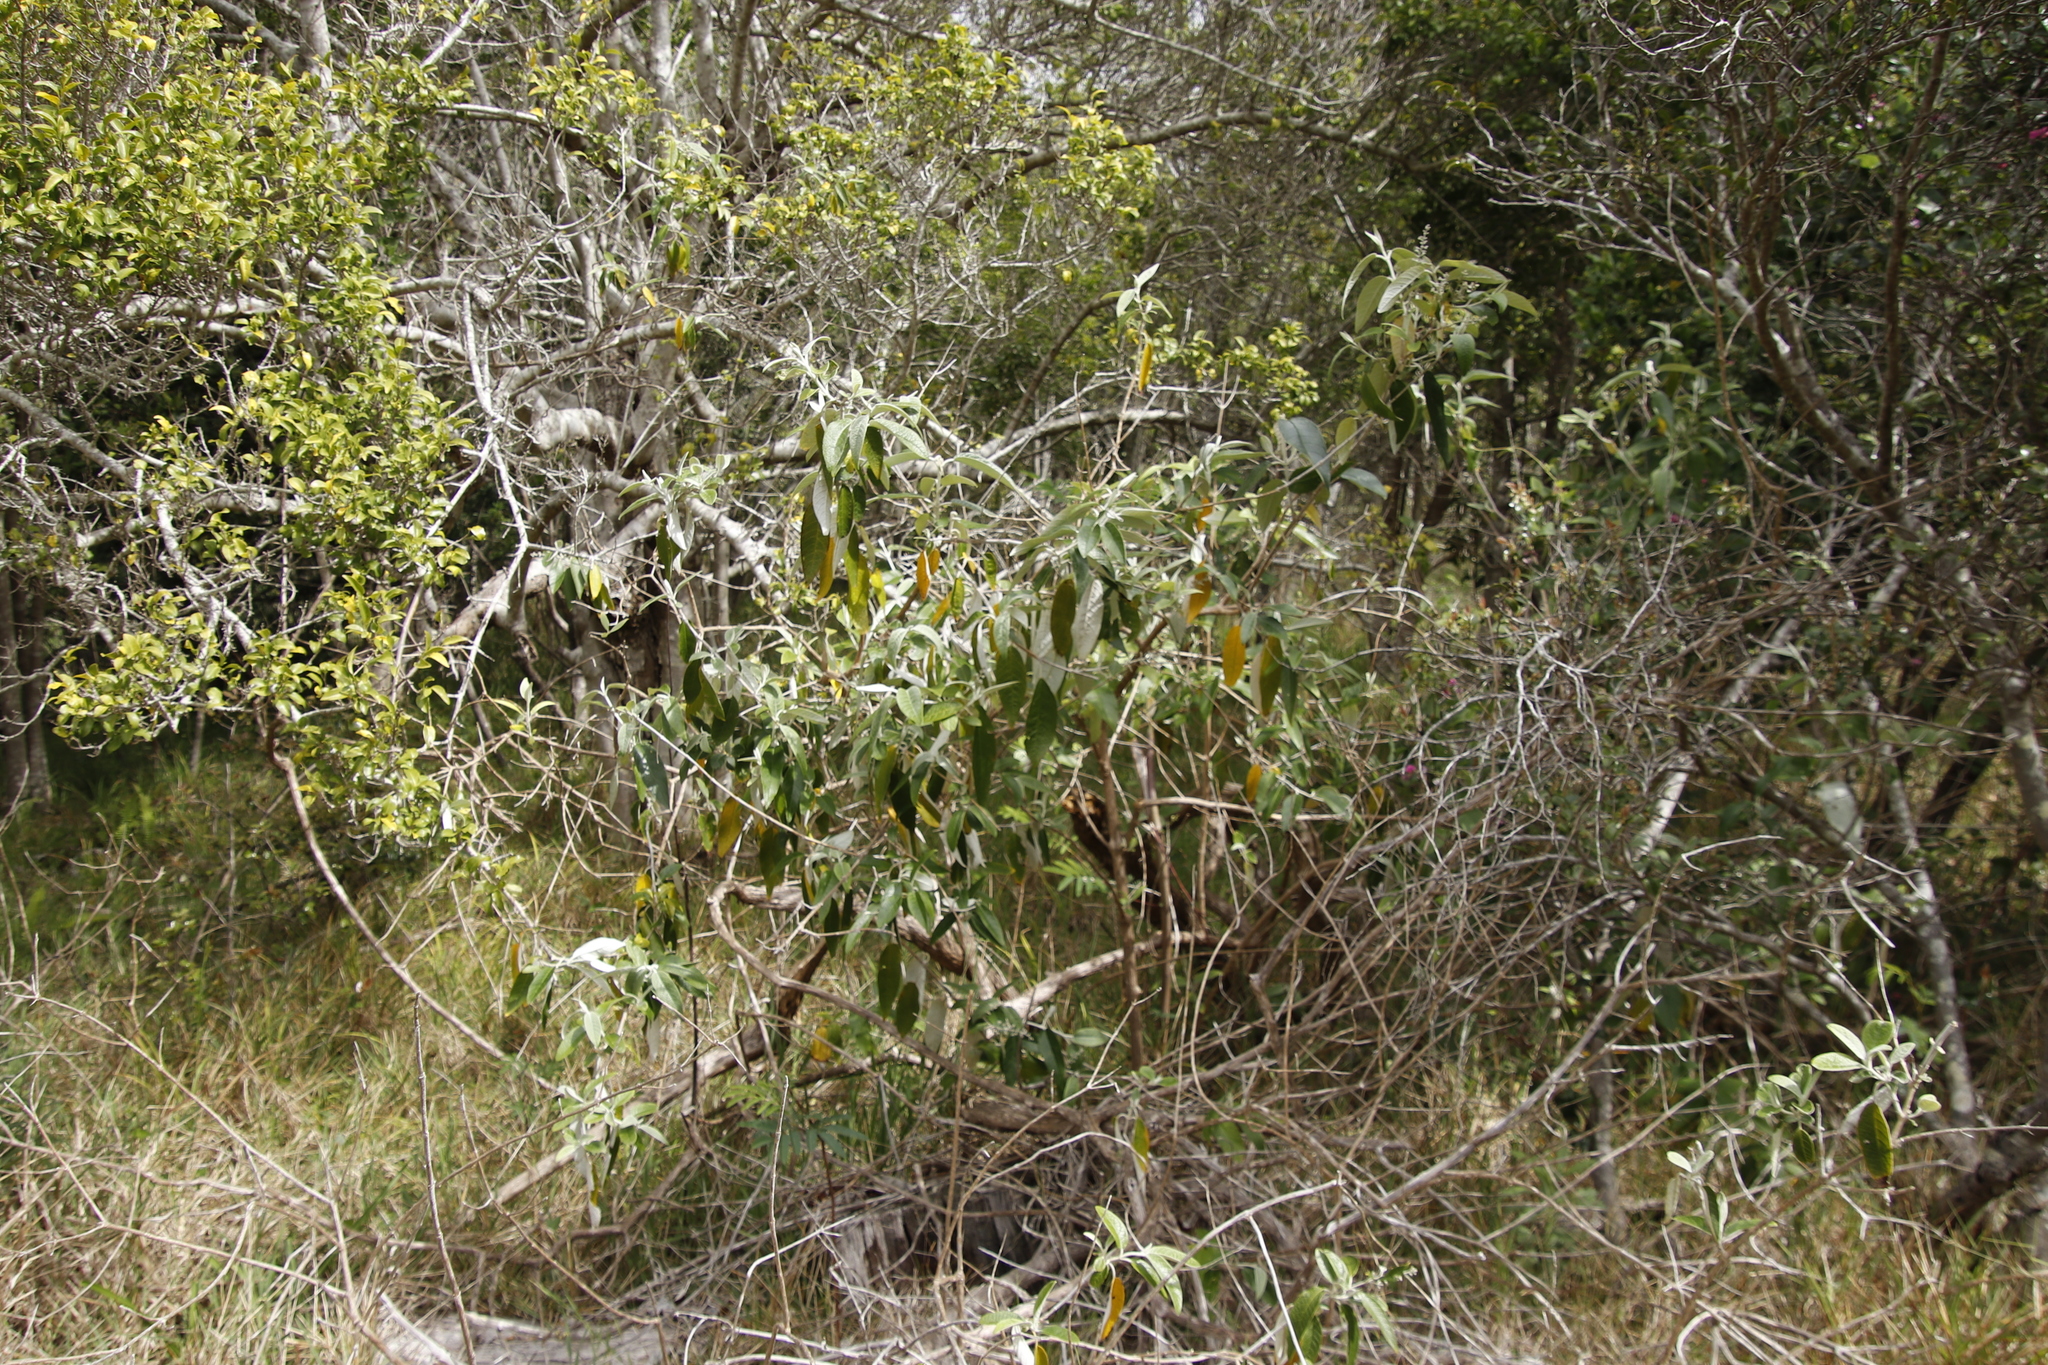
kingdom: Plantae
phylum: Tracheophyta
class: Magnoliopsida
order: Asterales
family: Asteraceae
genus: Tarchonanthus
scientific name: Tarchonanthus littoralis
